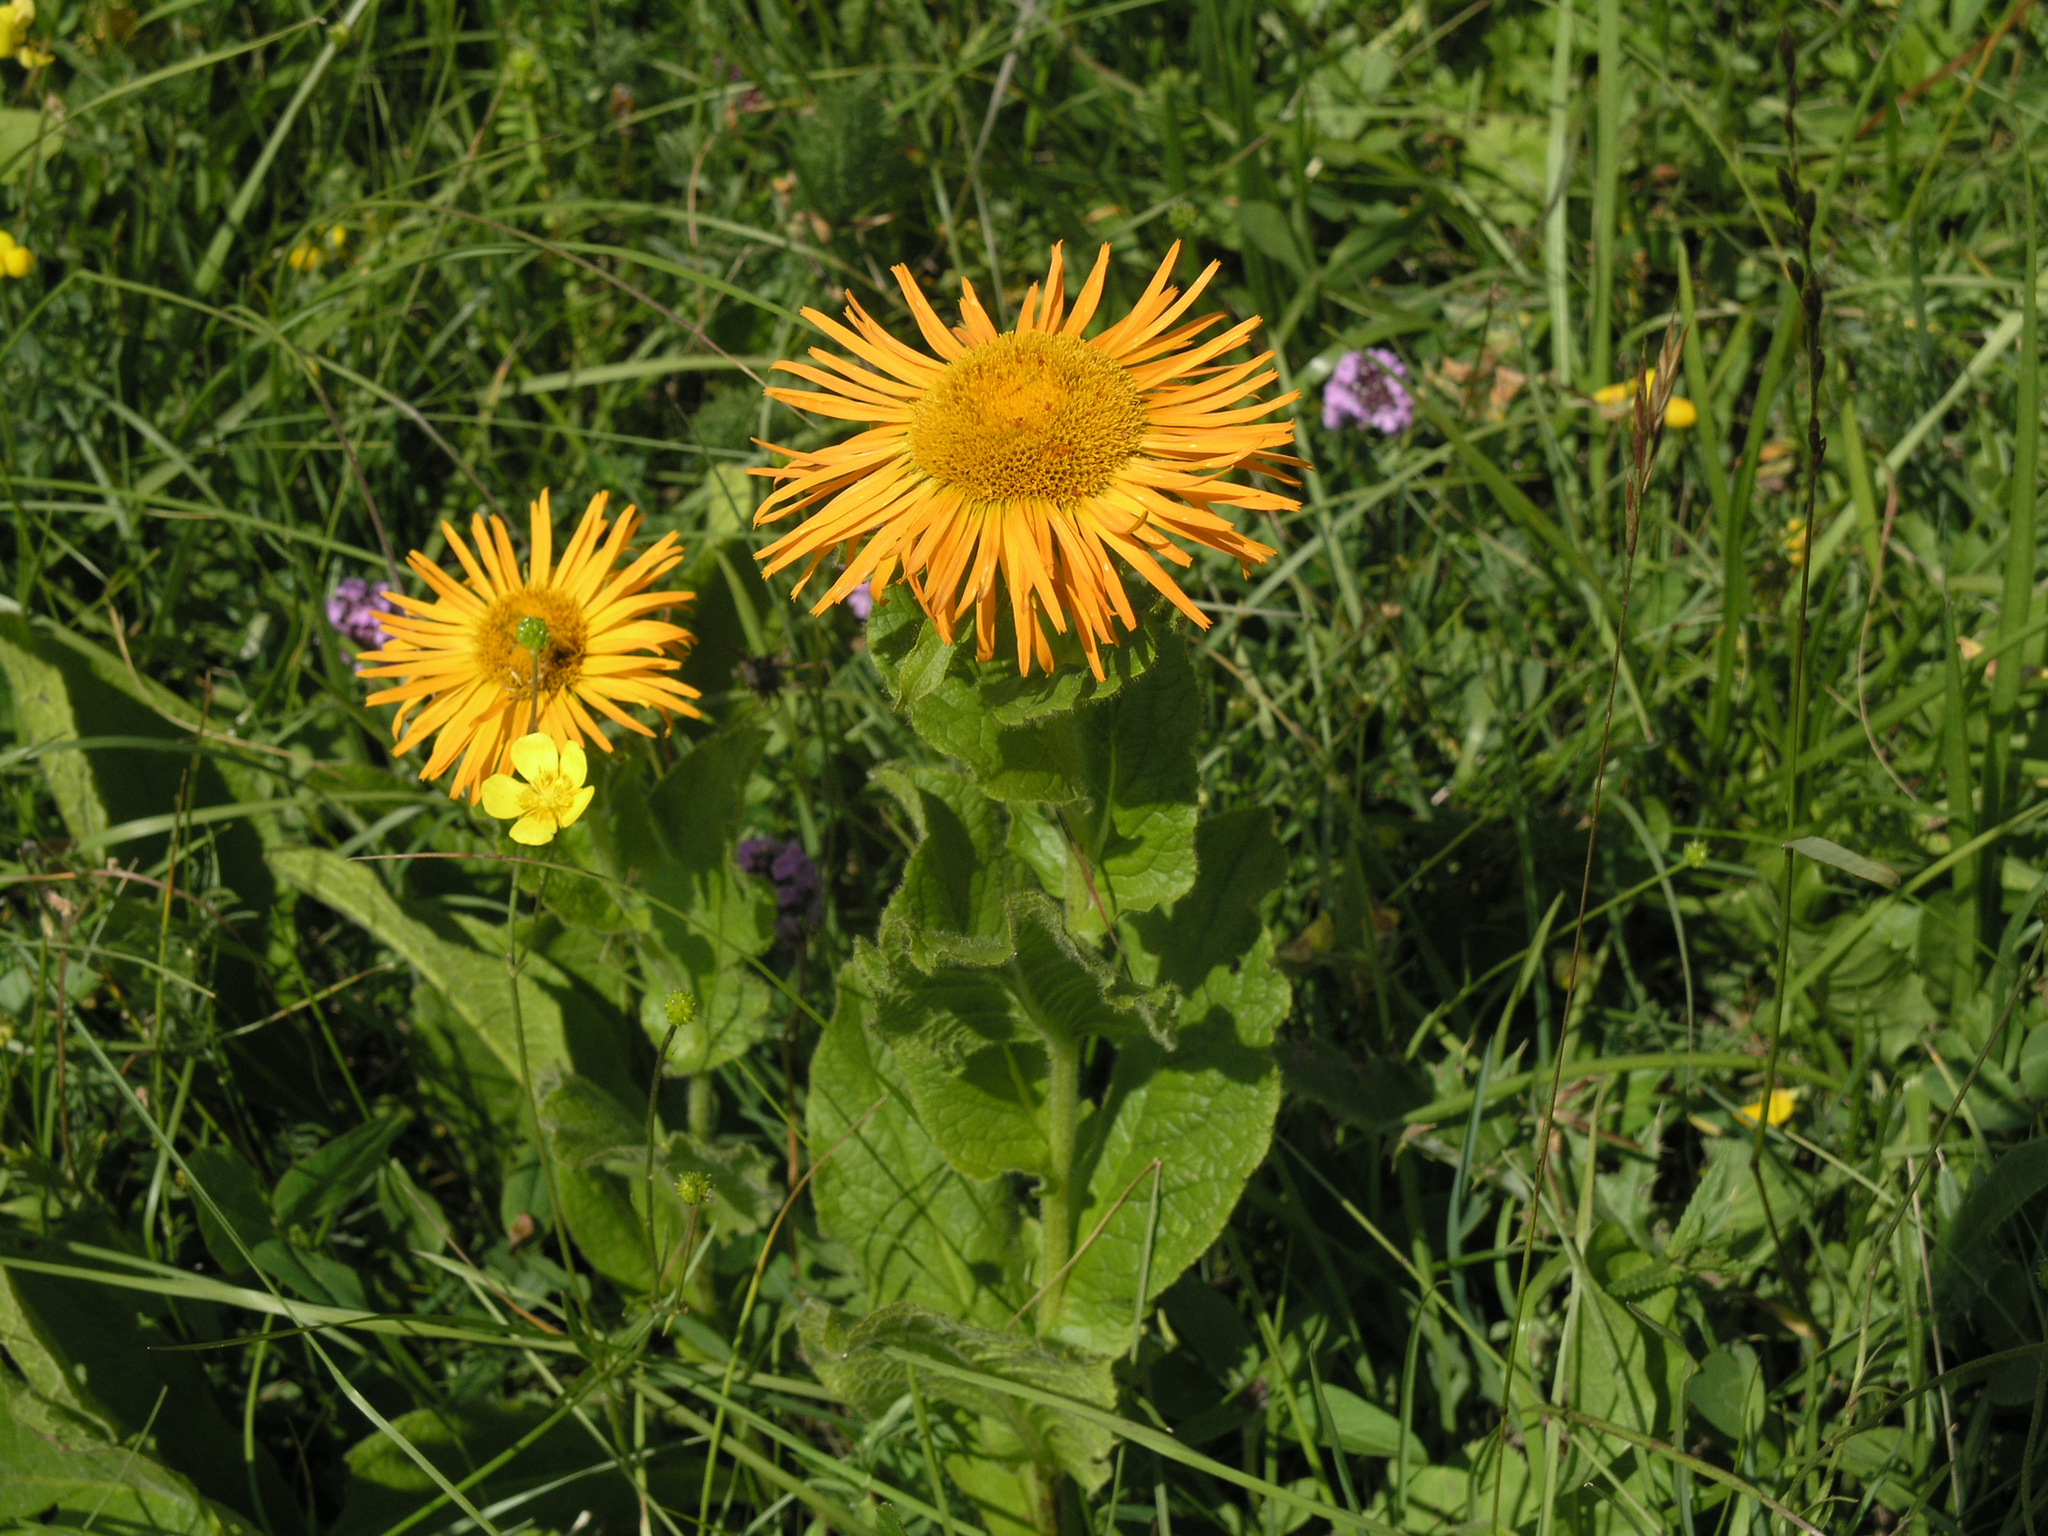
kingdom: Plantae
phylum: Tracheophyta
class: Magnoliopsida
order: Asterales
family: Asteraceae
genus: Pentanema
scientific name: Pentanema orientale
